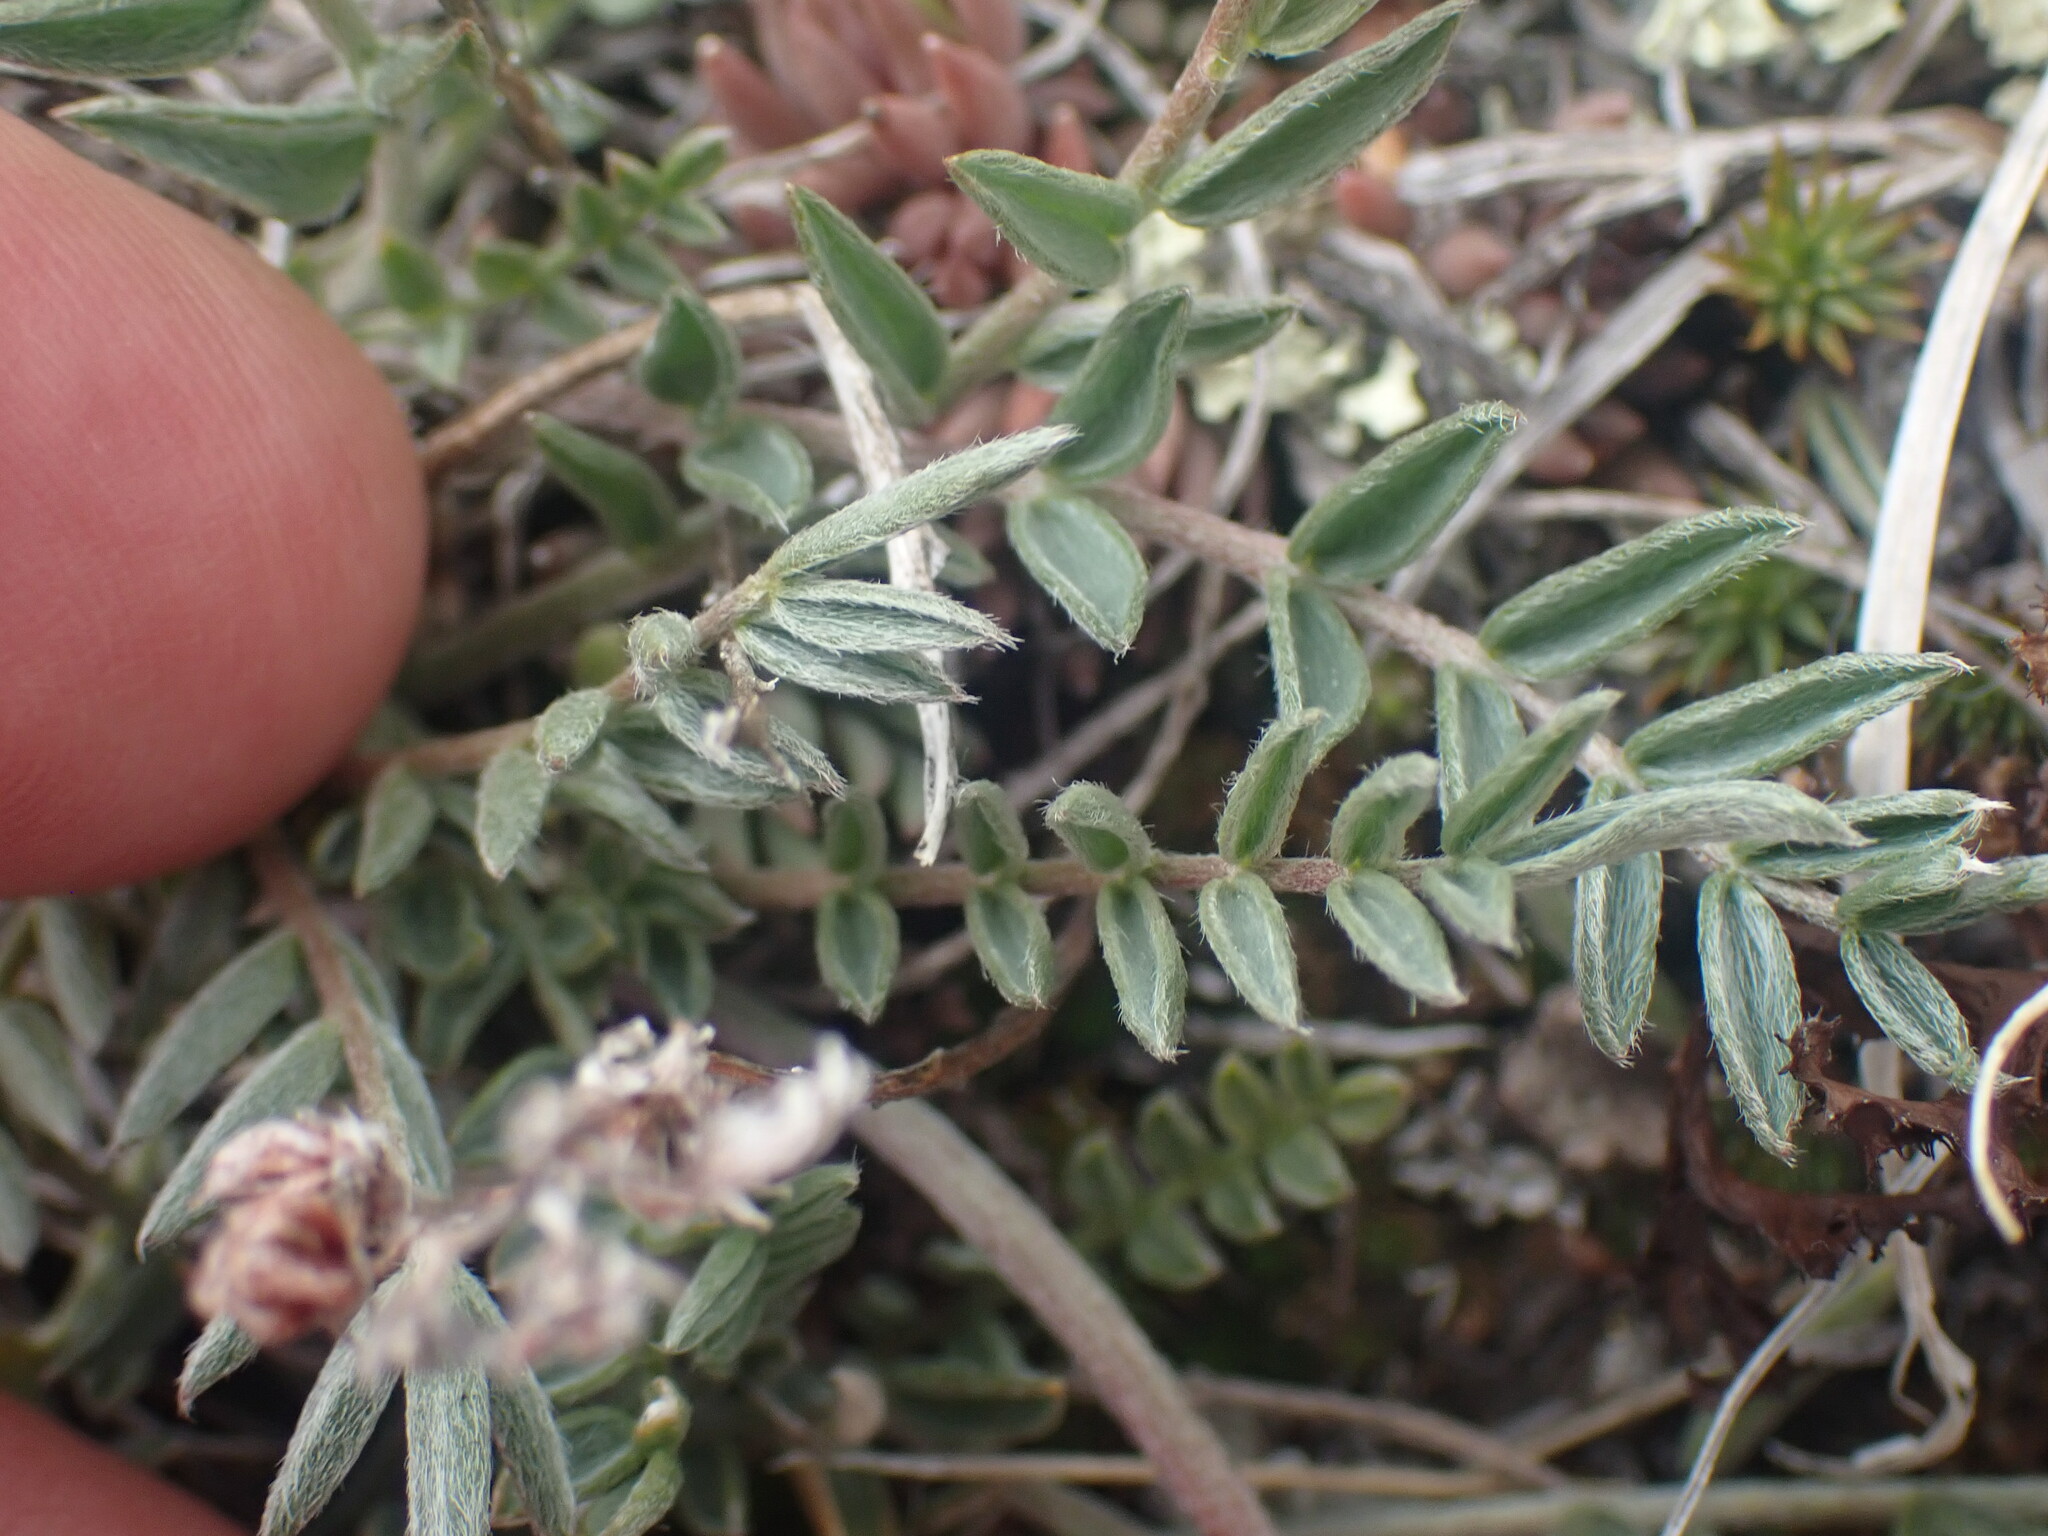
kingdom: Plantae
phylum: Tracheophyta
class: Magnoliopsida
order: Fabales
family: Fabaceae
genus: Oxytropis
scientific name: Oxytropis sericea
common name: Silky locoweed
